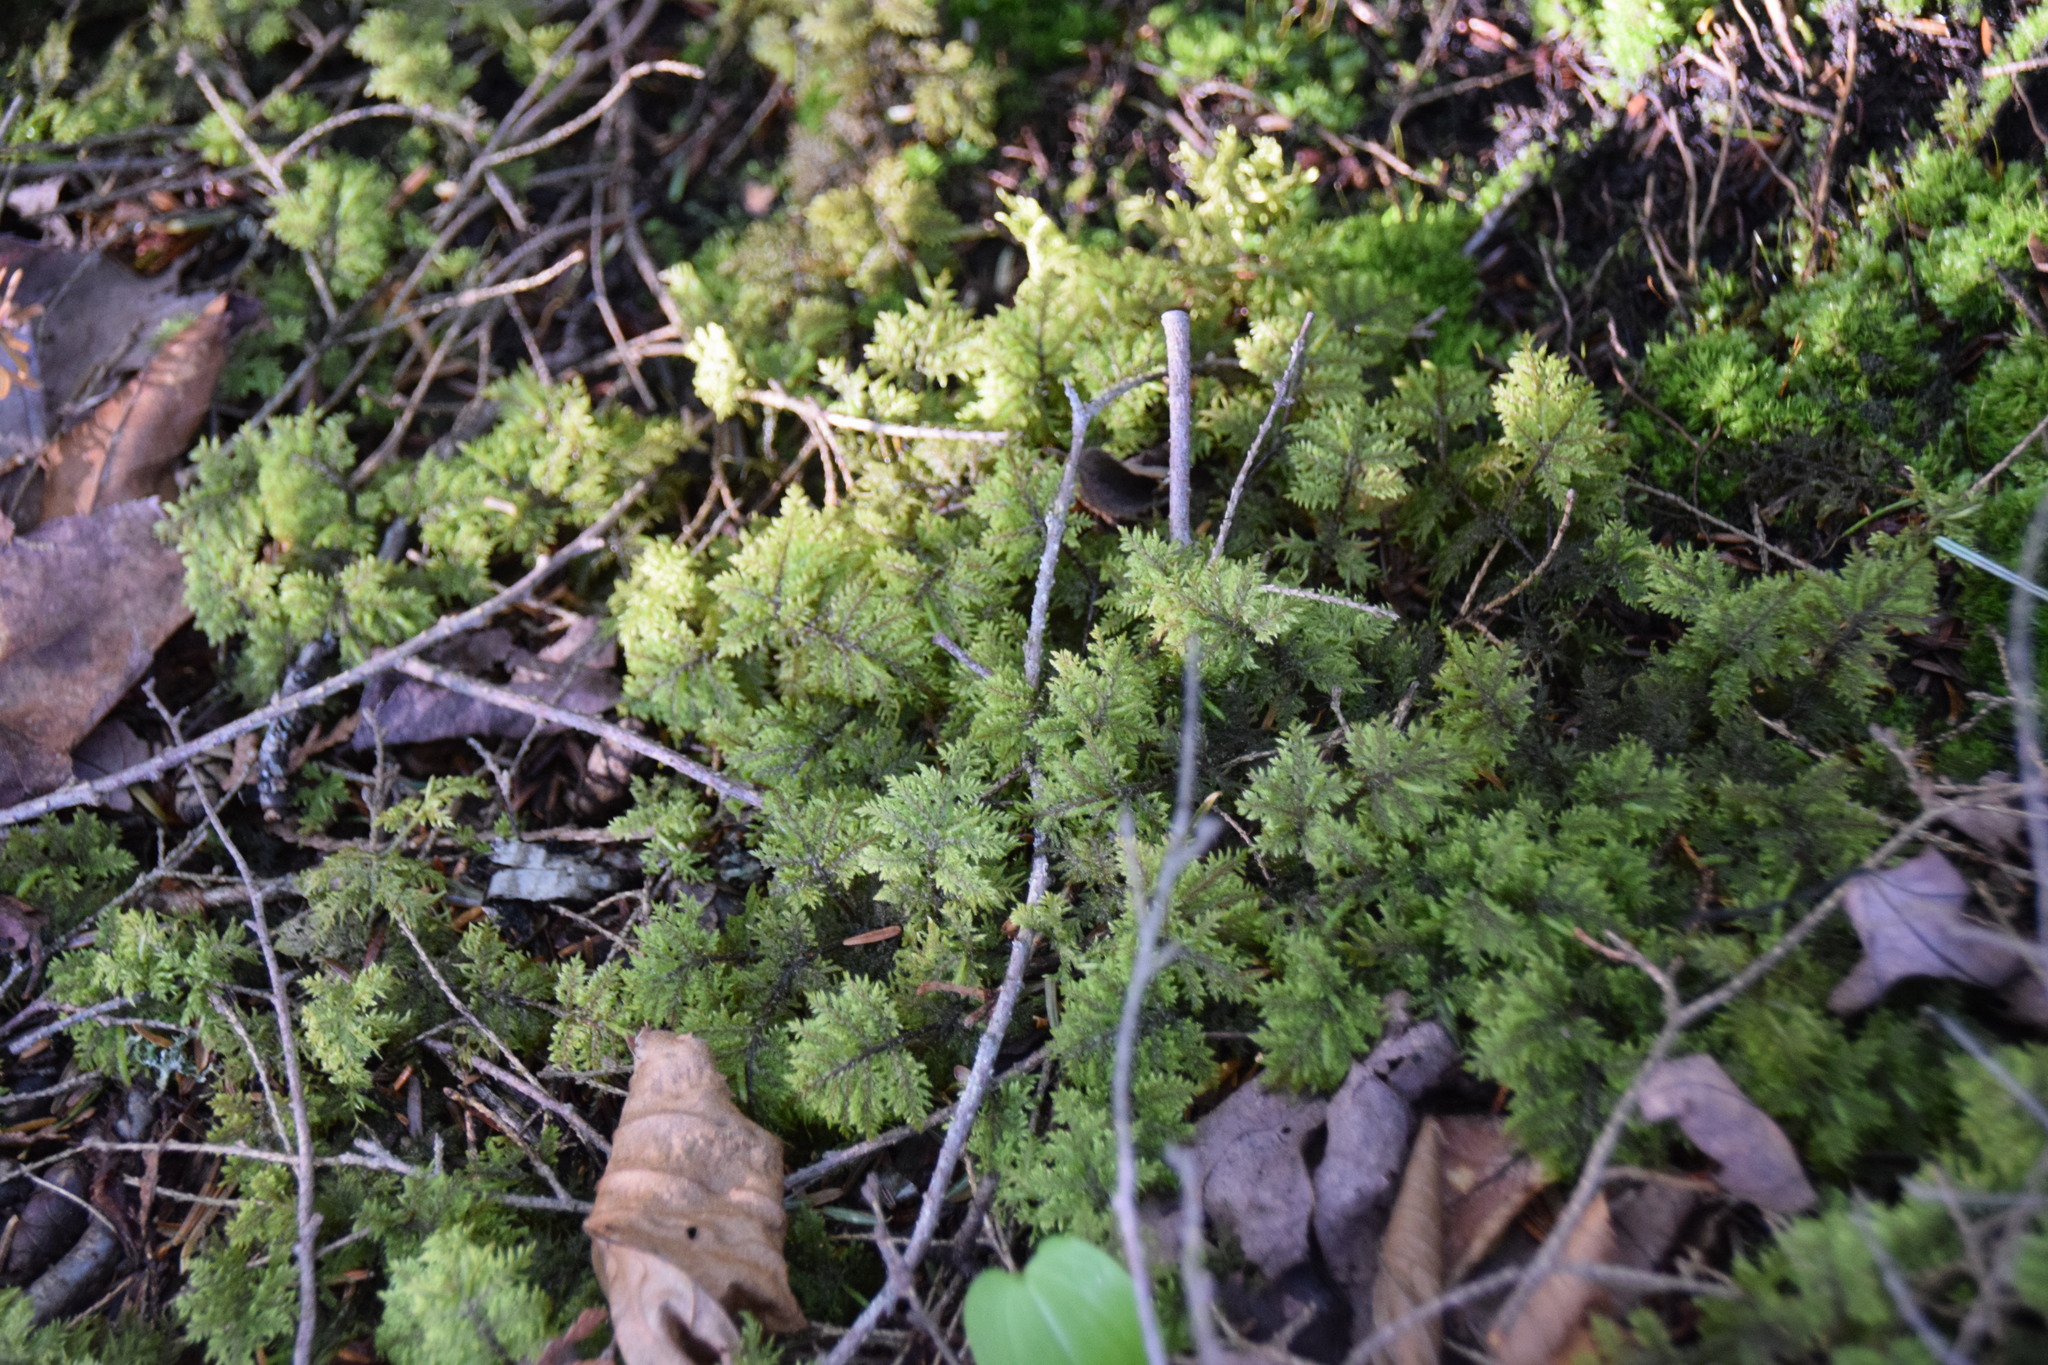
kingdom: Plantae
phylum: Bryophyta
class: Bryopsida
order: Hypnales
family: Hylocomiaceae
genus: Hylocomium
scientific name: Hylocomium splendens
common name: Stairstep moss
